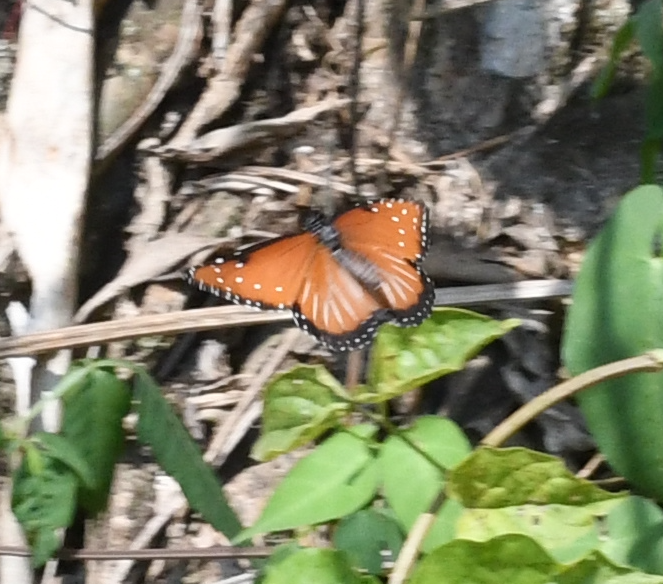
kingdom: Animalia
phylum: Arthropoda
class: Insecta
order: Lepidoptera
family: Nymphalidae
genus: Danaus
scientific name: Danaus gilippus
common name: Queen
